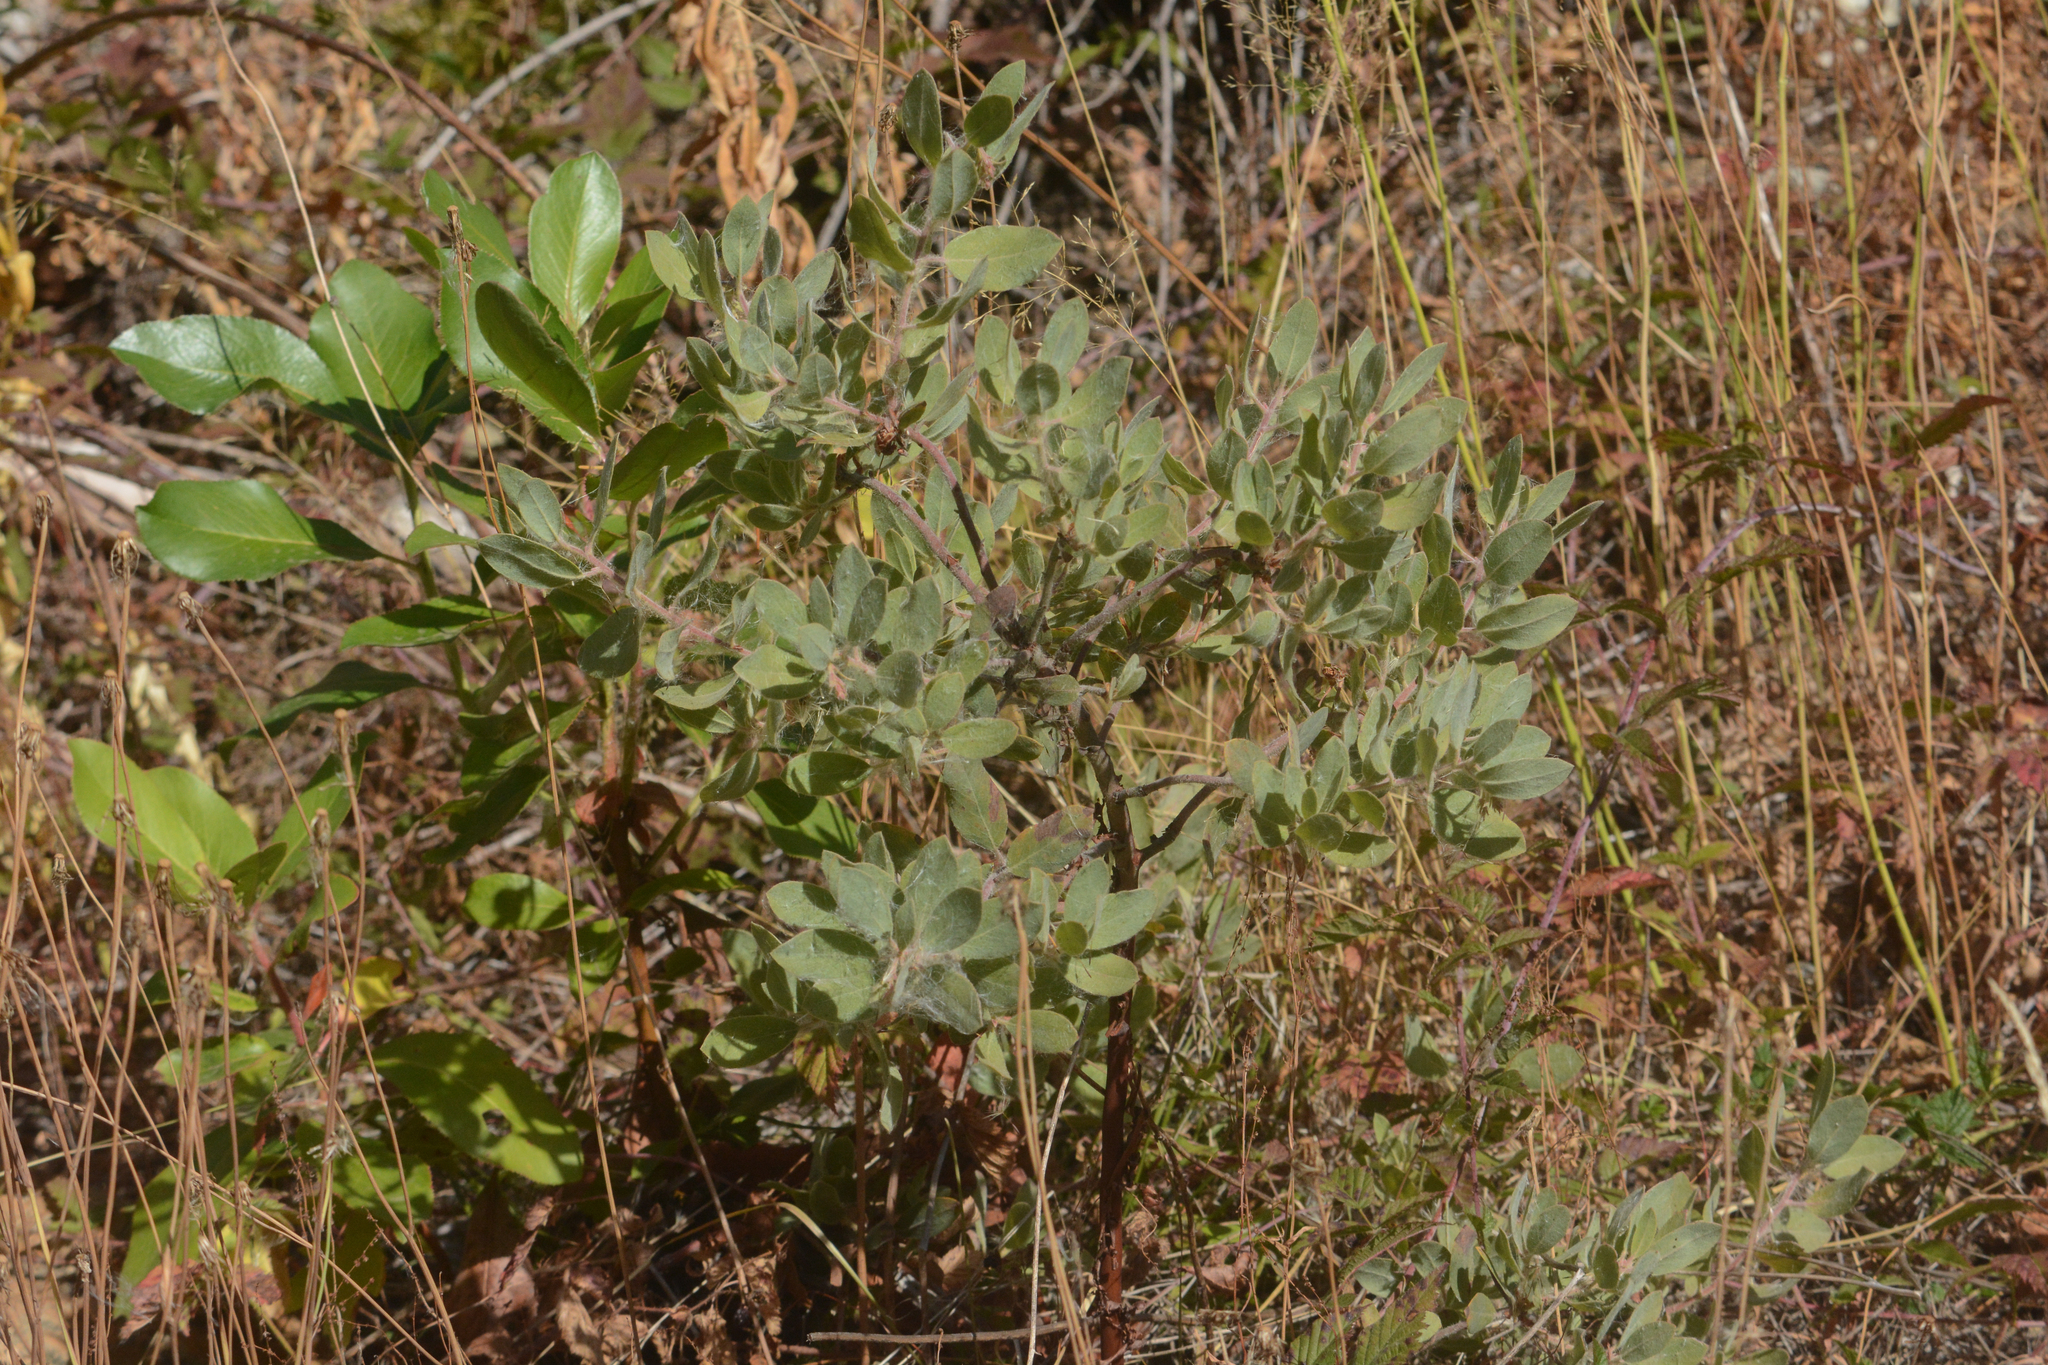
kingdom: Plantae
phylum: Tracheophyta
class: Magnoliopsida
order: Ericales
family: Ericaceae
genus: Arctostaphylos
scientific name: Arctostaphylos columbiana
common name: Bristly bearberry
